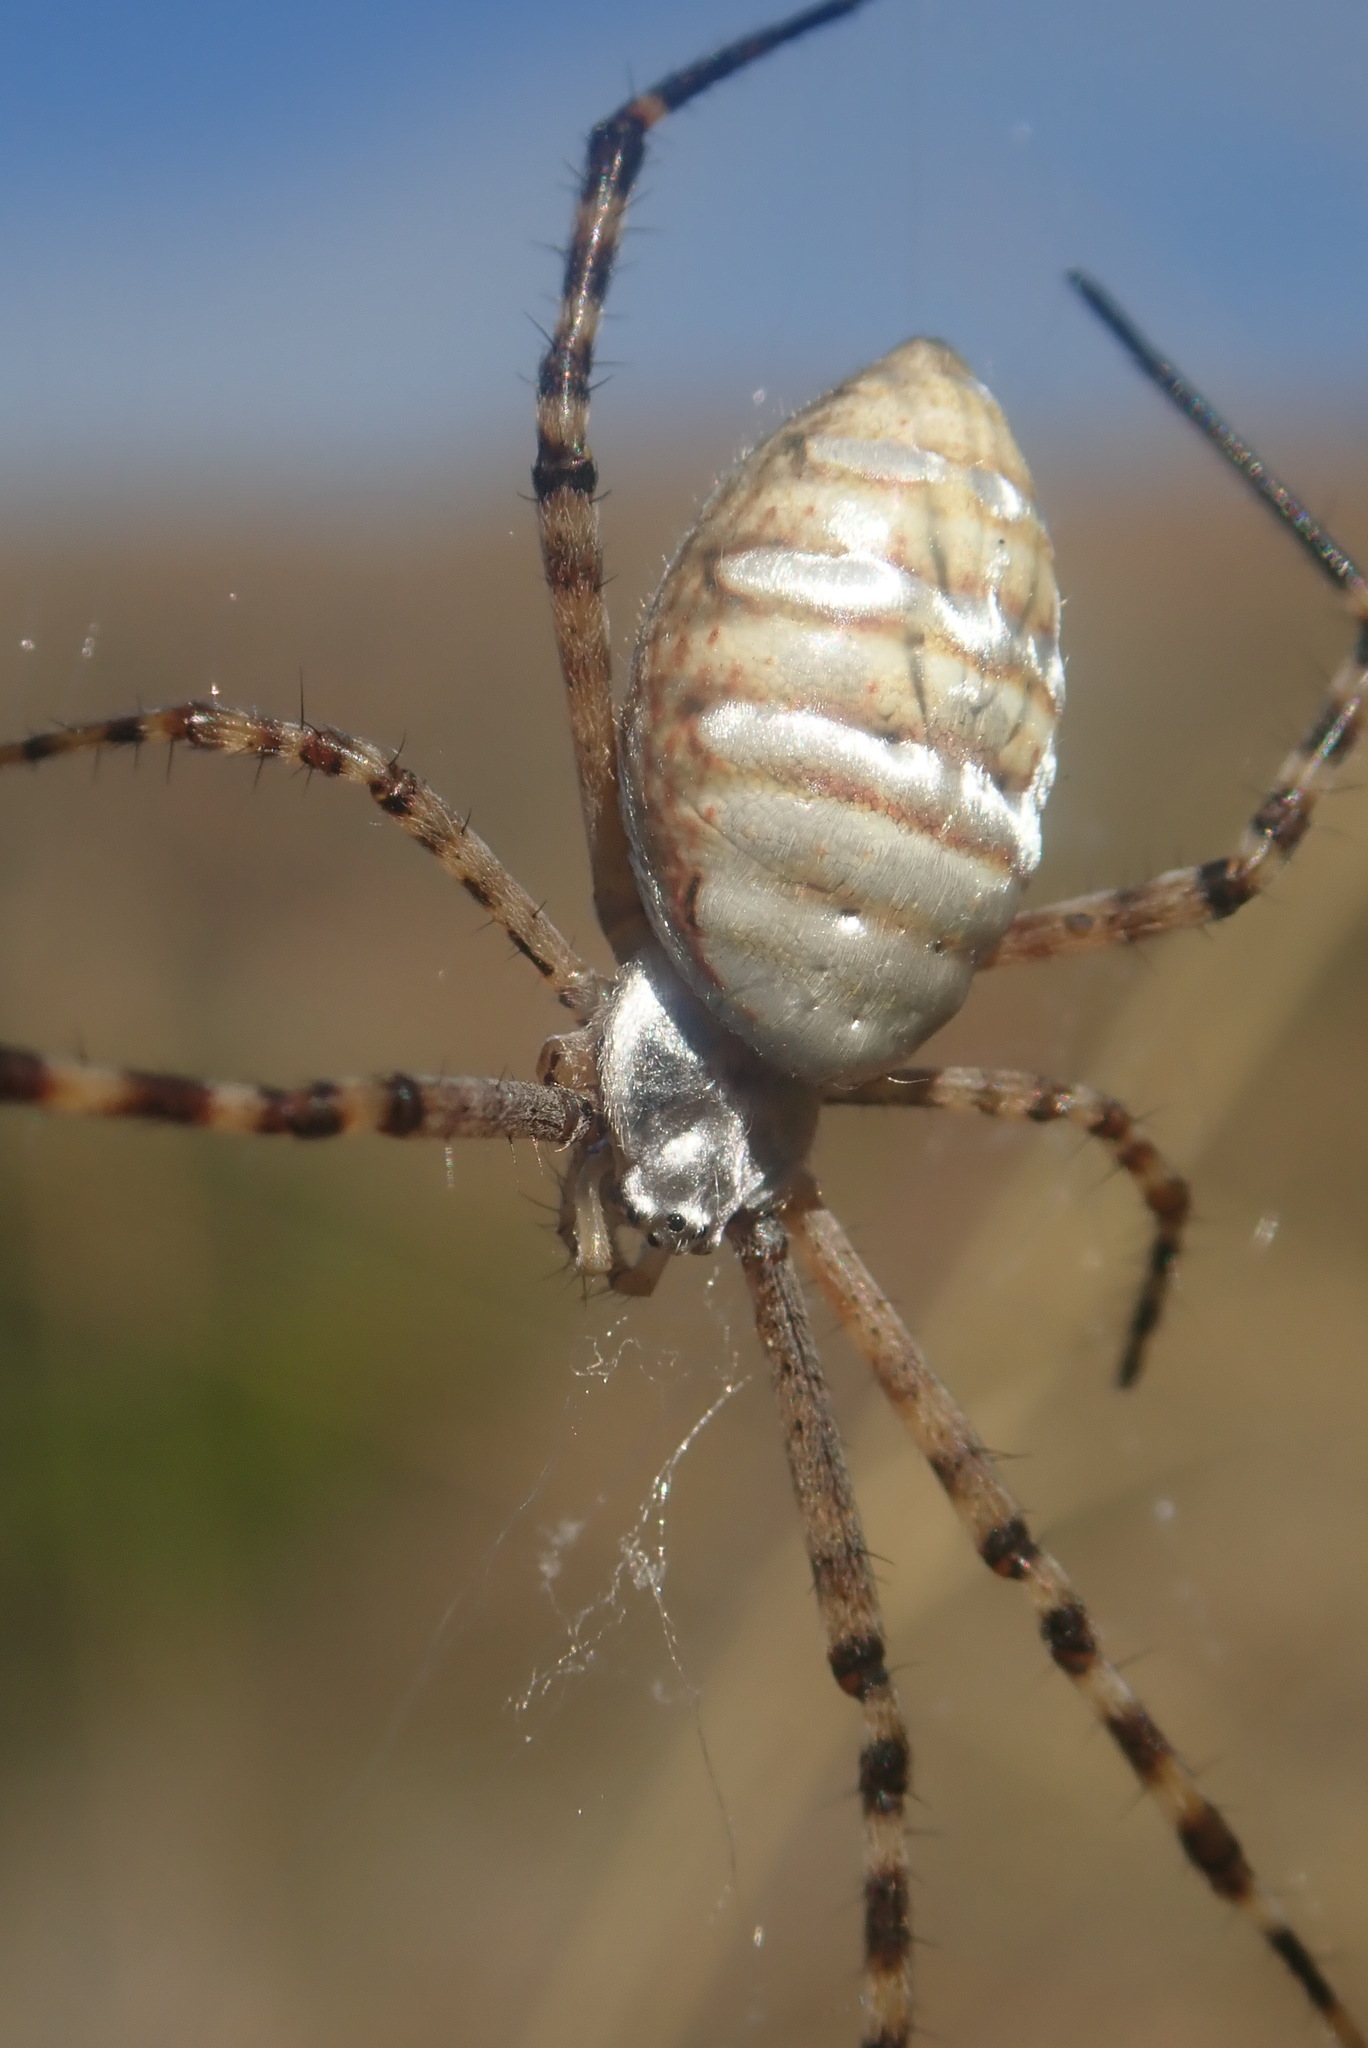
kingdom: Animalia
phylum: Arthropoda
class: Arachnida
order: Araneae
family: Araneidae
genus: Argiope
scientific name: Argiope trifasciata
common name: Banded garden spider
